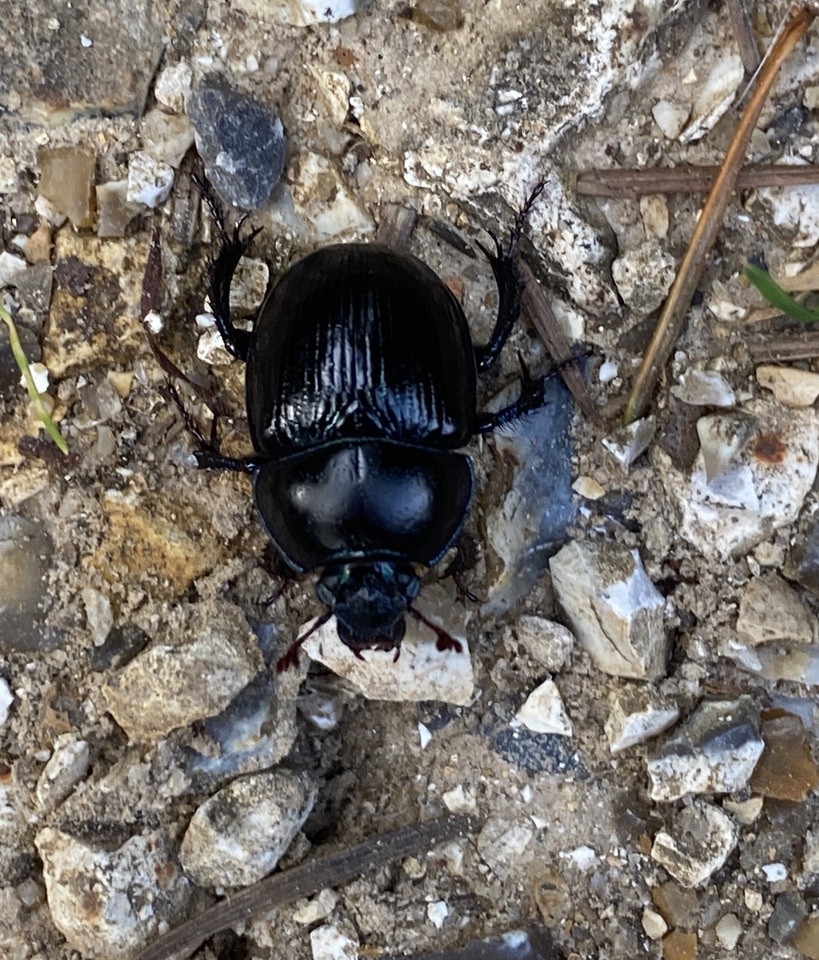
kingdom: Animalia
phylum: Arthropoda
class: Insecta
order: Coleoptera
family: Geotrupidae
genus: Anoplotrupes
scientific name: Anoplotrupes stercorosus
